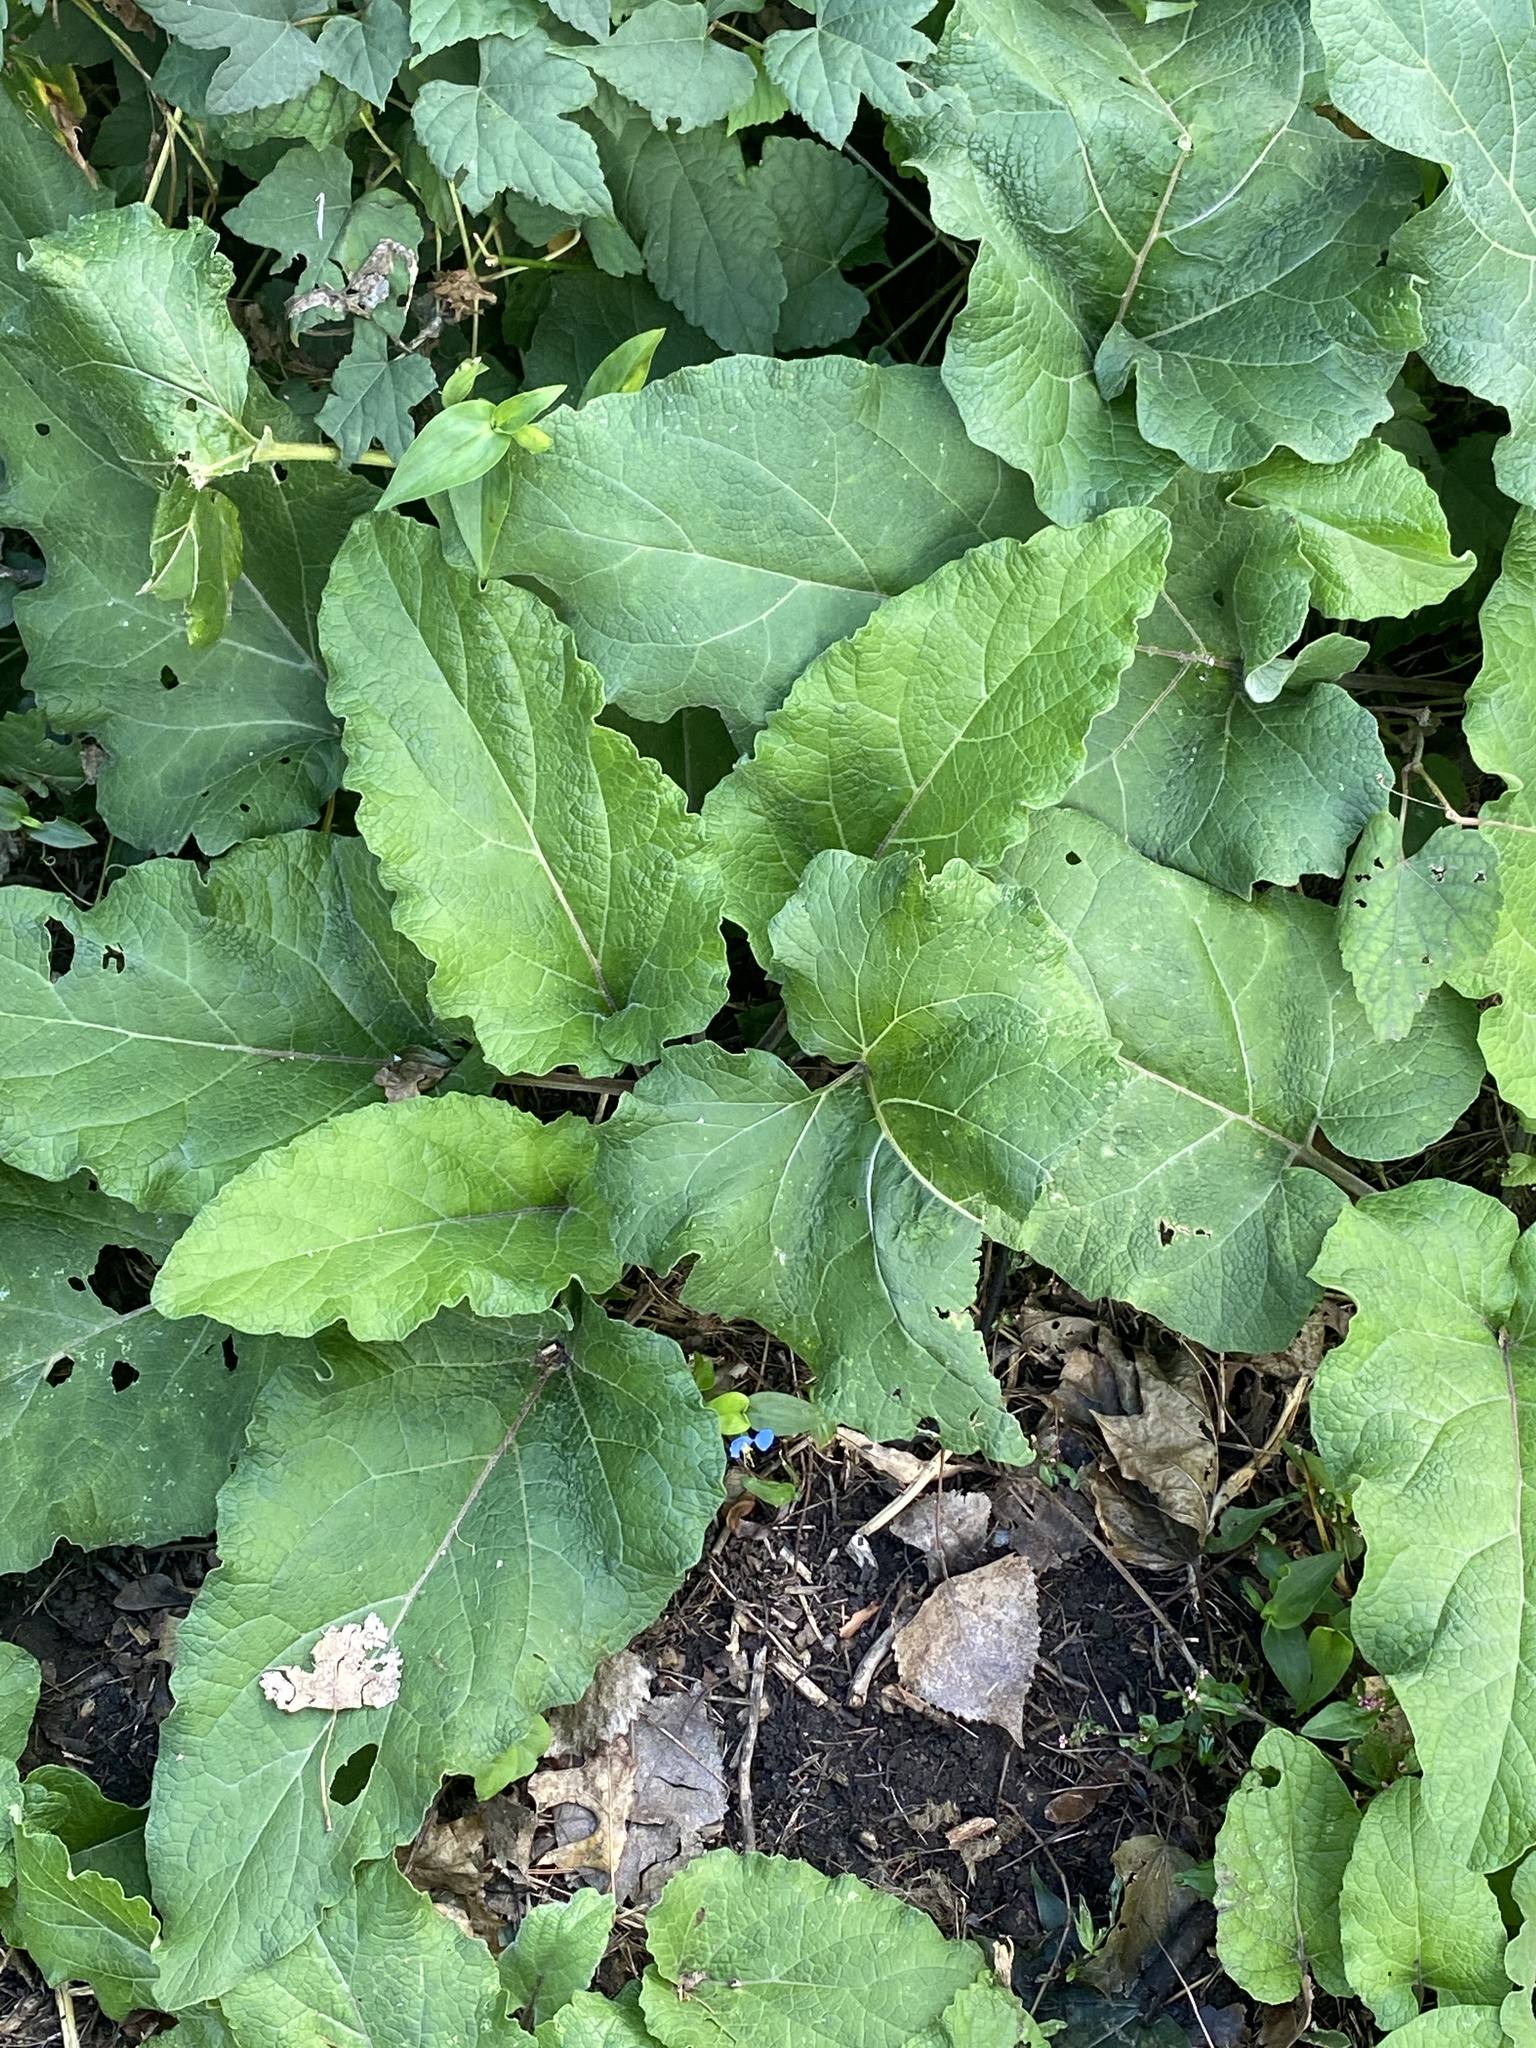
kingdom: Plantae
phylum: Tracheophyta
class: Magnoliopsida
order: Asterales
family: Asteraceae
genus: Arctium
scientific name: Arctium minus
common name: Lesser burdock
